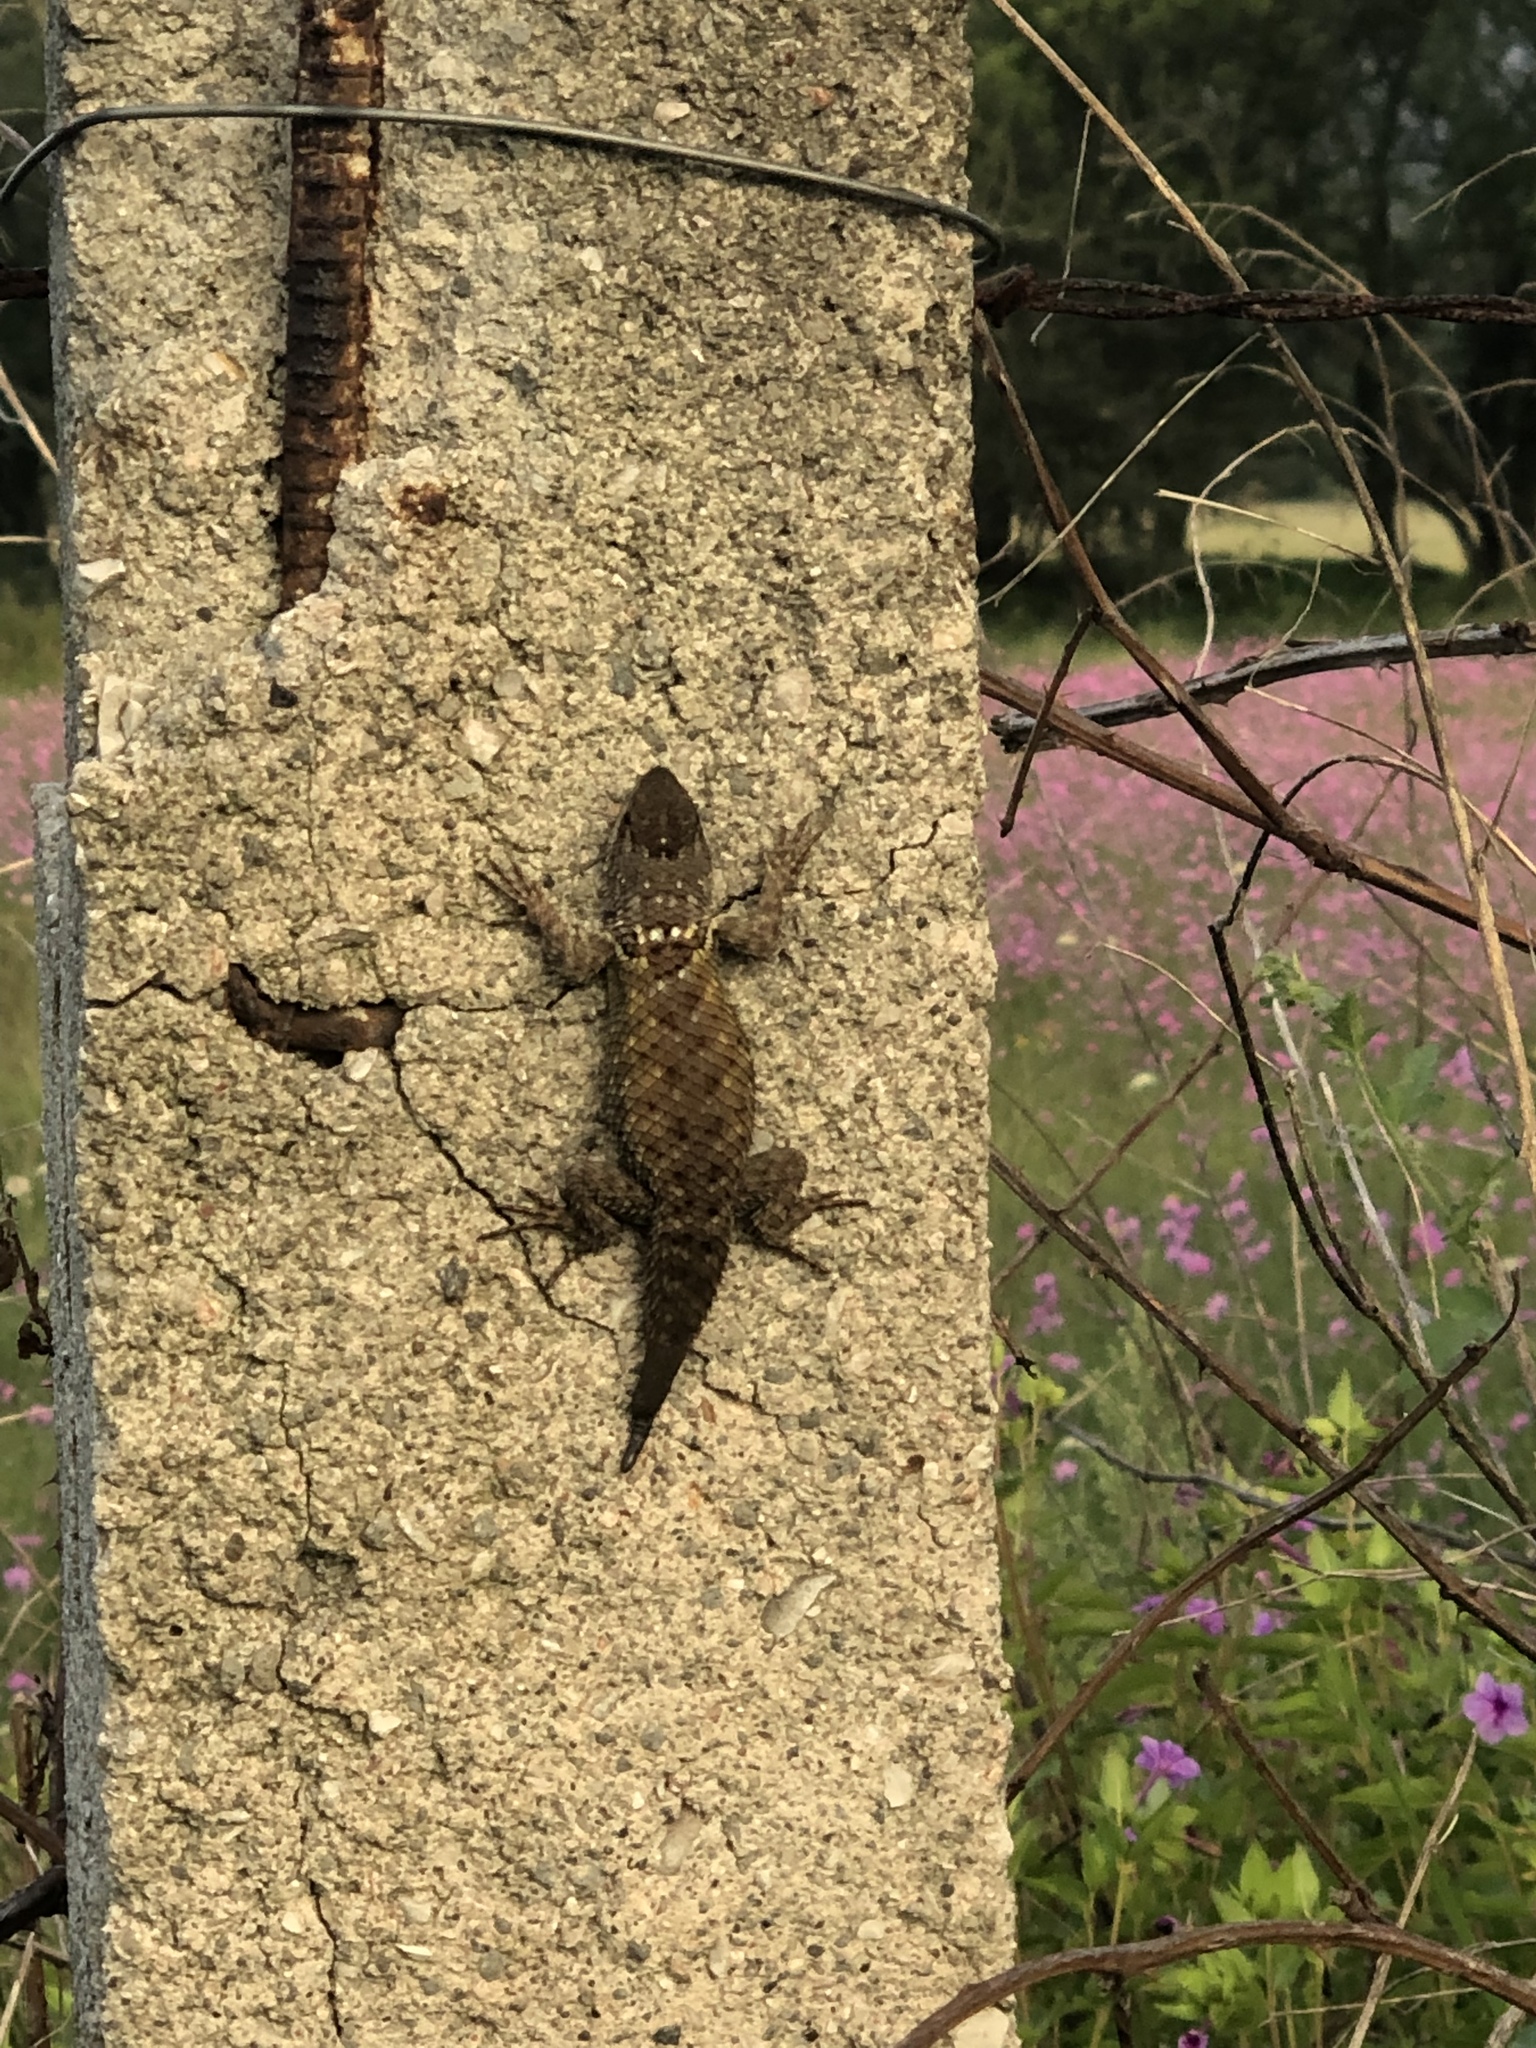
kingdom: Animalia
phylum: Chordata
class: Squamata
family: Phrynosomatidae
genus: Sceloporus
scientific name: Sceloporus torquatus
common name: Central plateau torquate lizard [melanogaster]
